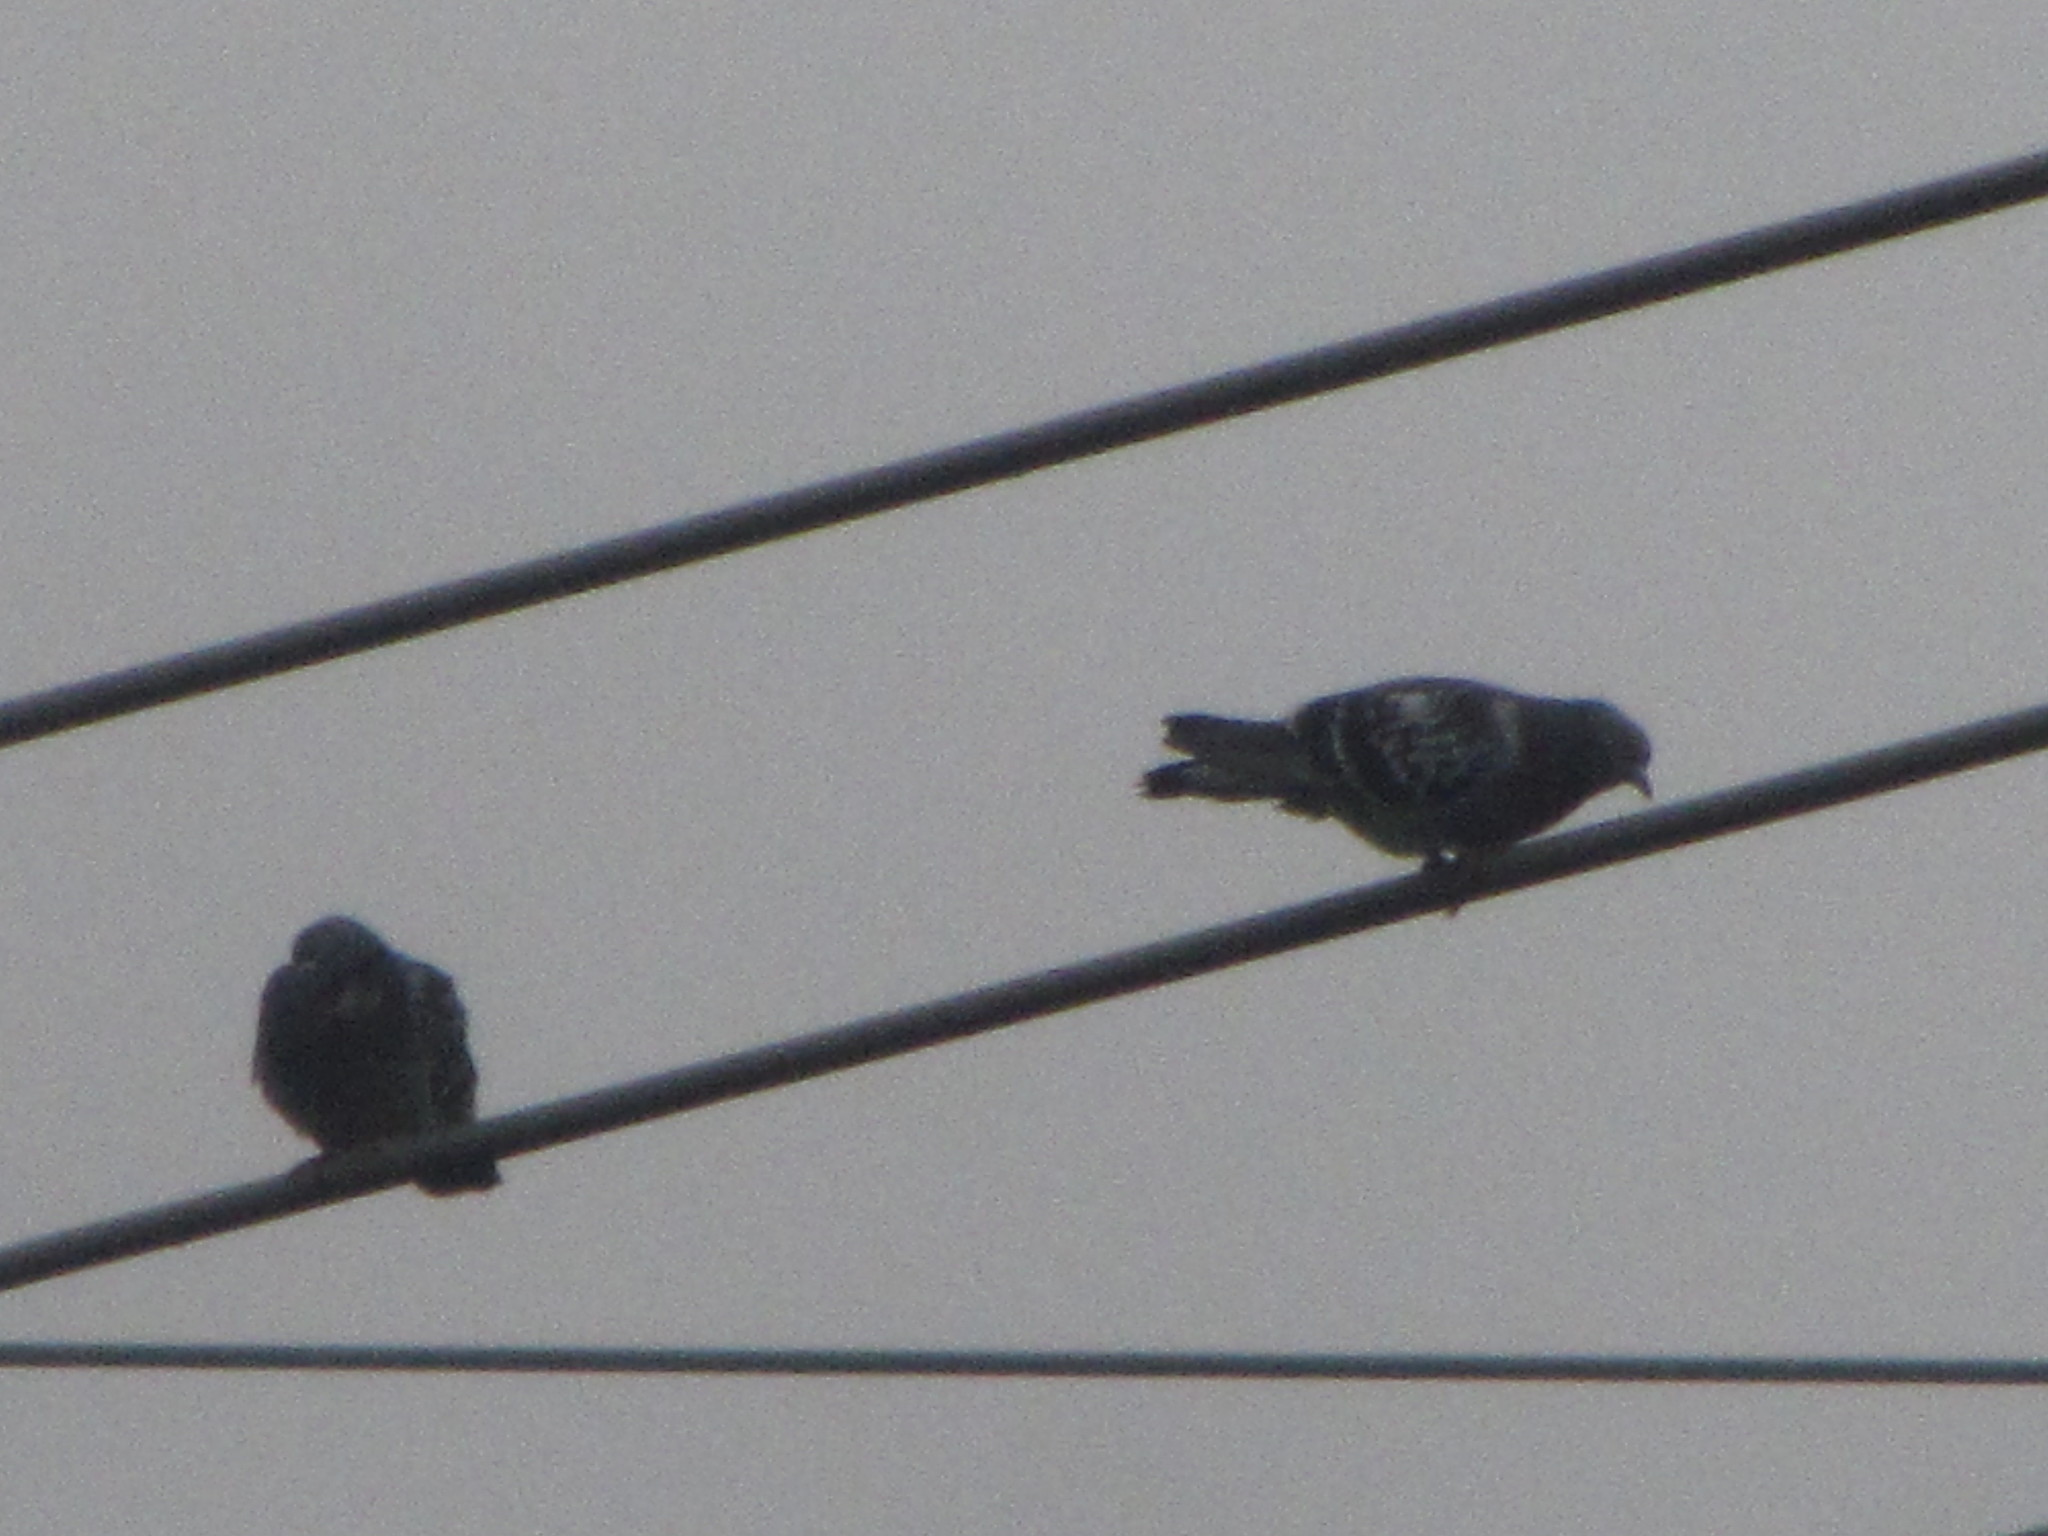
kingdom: Animalia
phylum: Chordata
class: Aves
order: Columbiformes
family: Columbidae
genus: Columba
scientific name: Columba livia
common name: Rock pigeon
